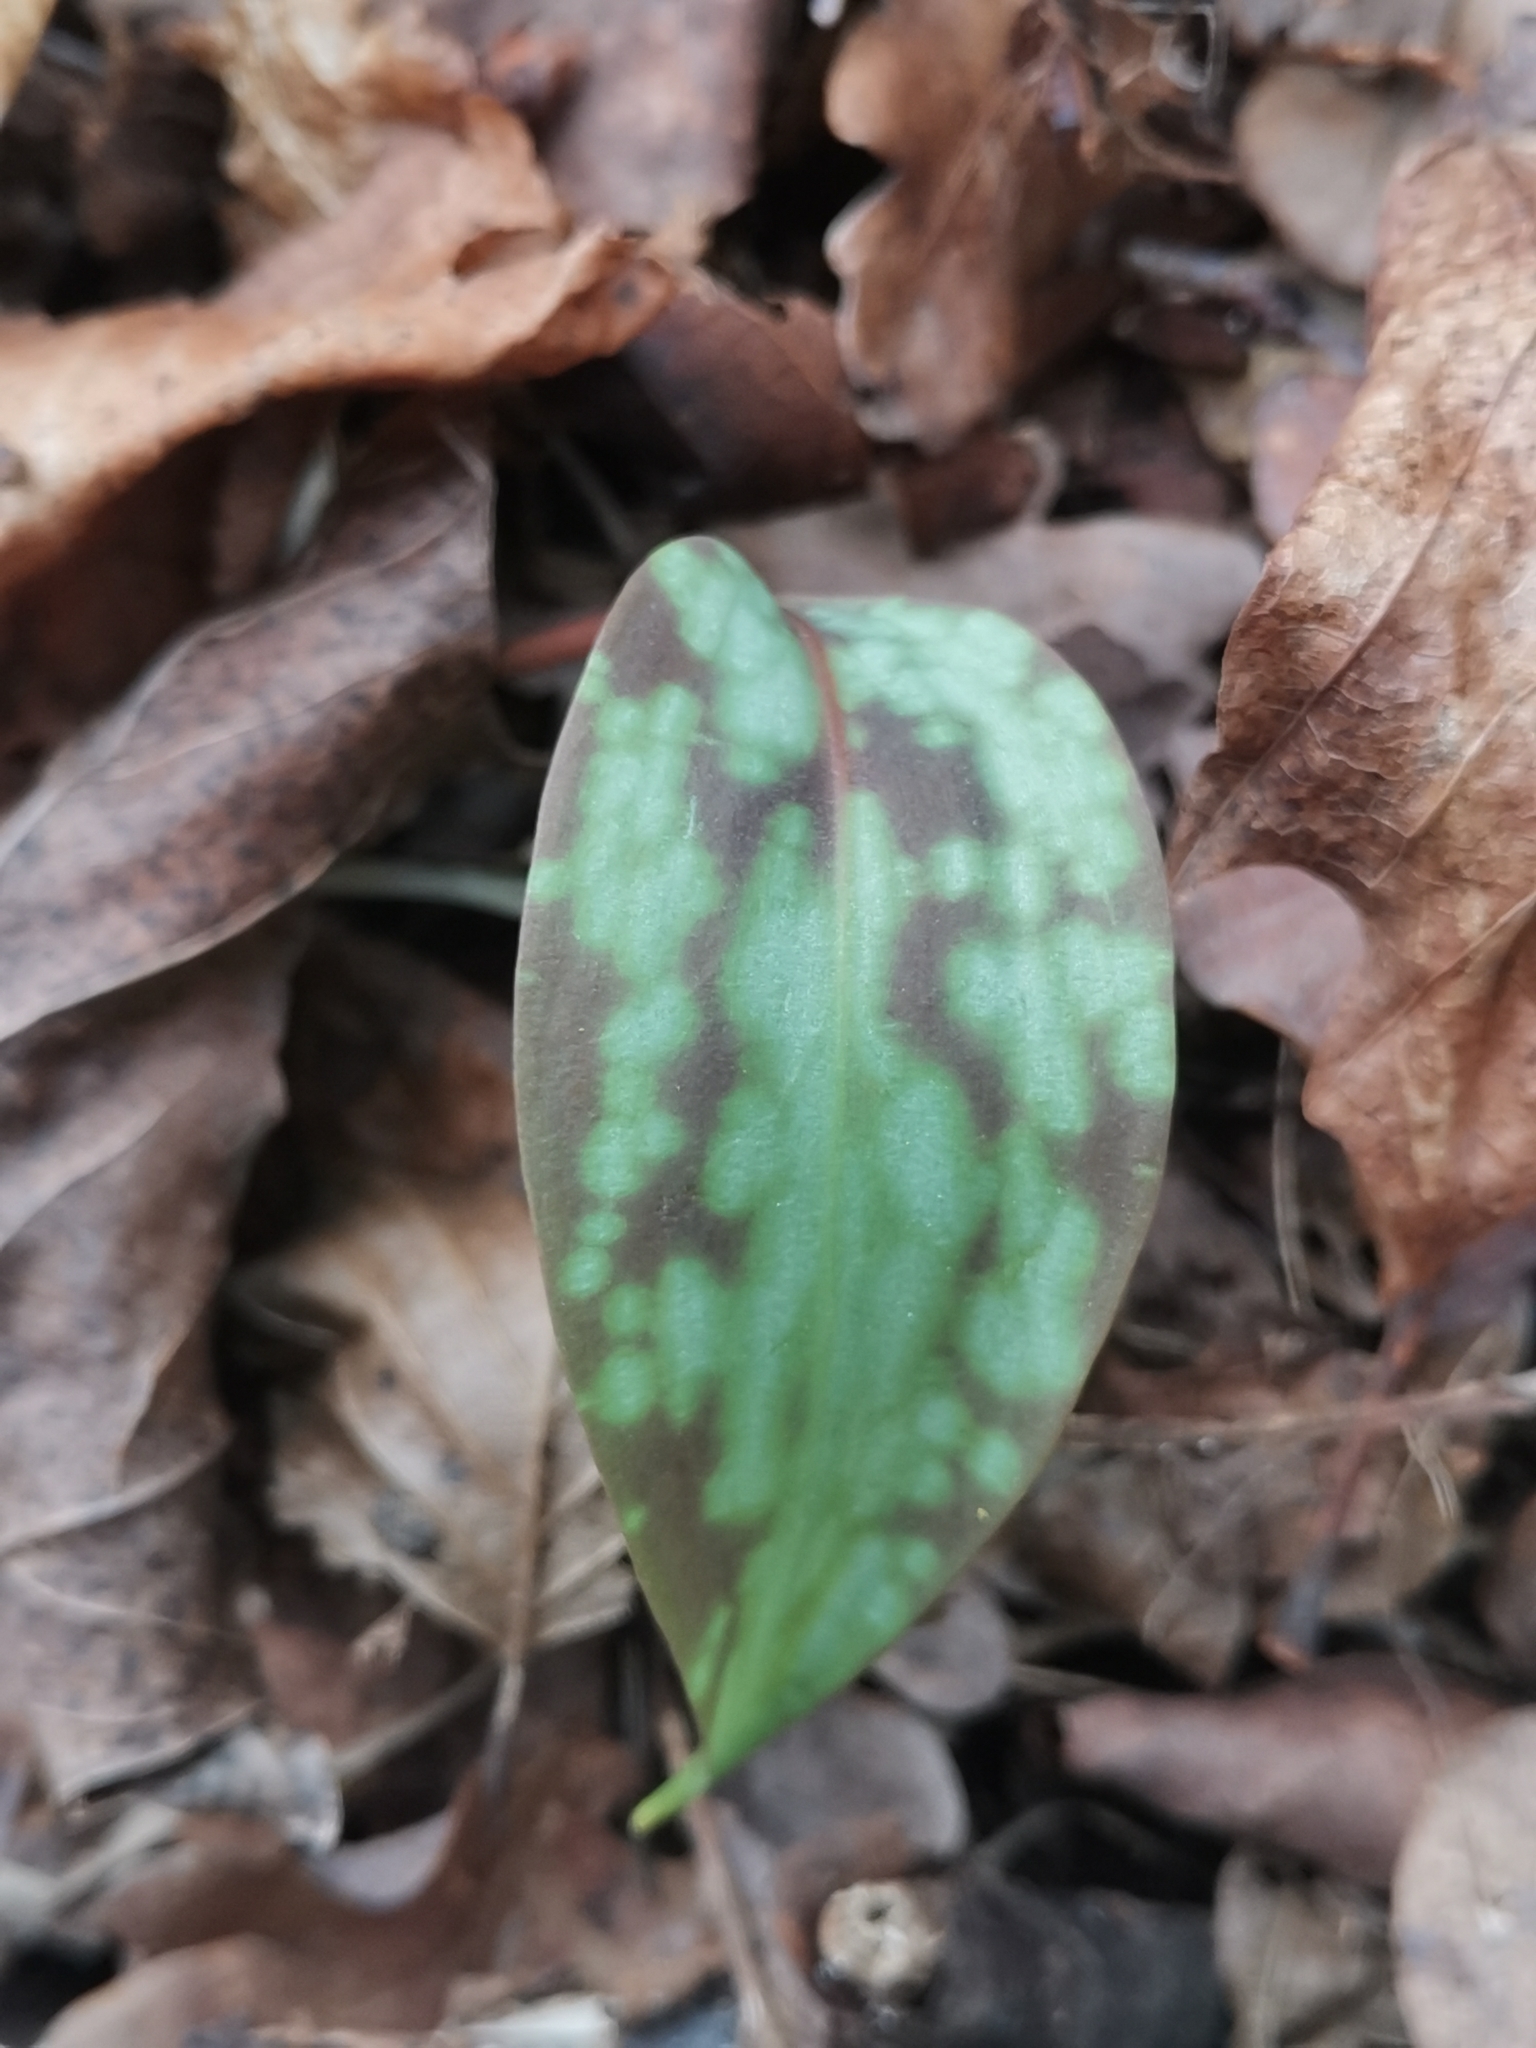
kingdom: Plantae
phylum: Tracheophyta
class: Liliopsida
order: Liliales
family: Liliaceae
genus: Erythronium
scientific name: Erythronium dens-canis
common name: Dog's-tooth-violet
